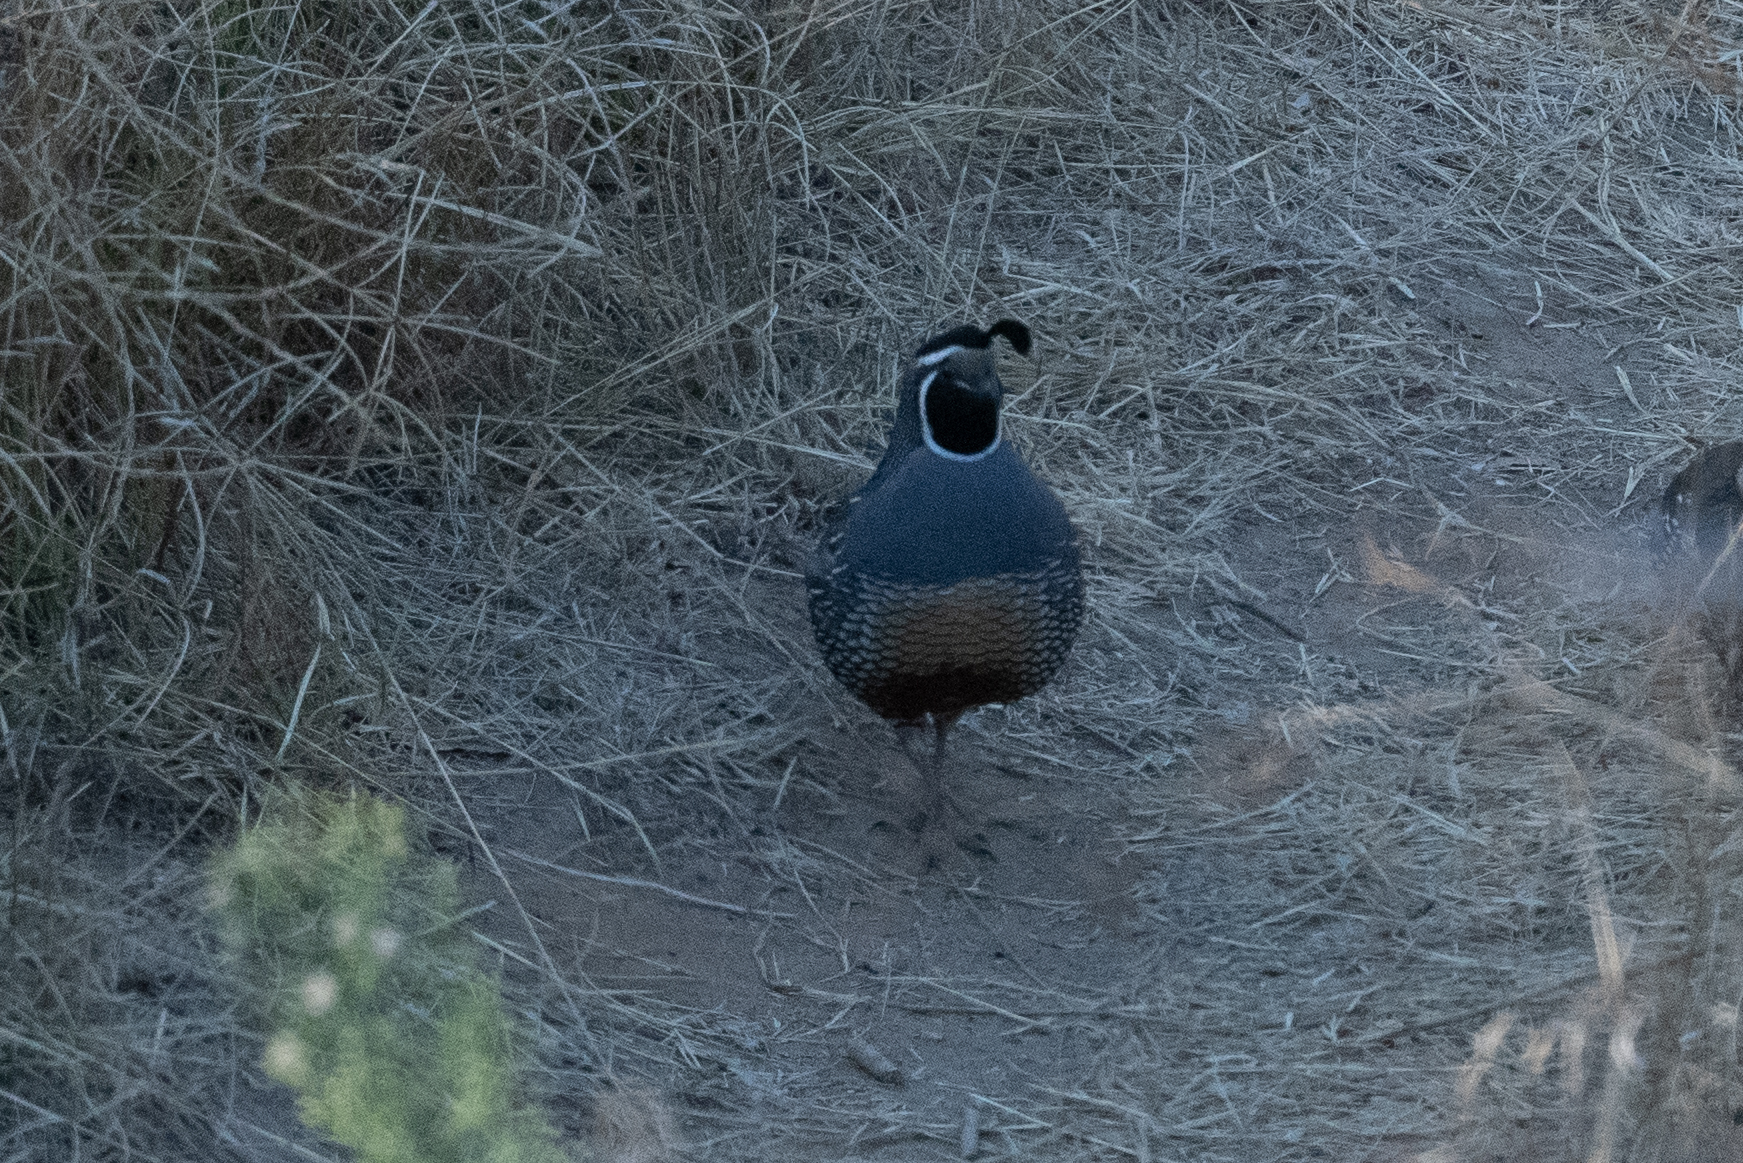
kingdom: Animalia
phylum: Chordata
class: Aves
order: Galliformes
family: Odontophoridae
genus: Callipepla
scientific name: Callipepla californica
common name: California quail
